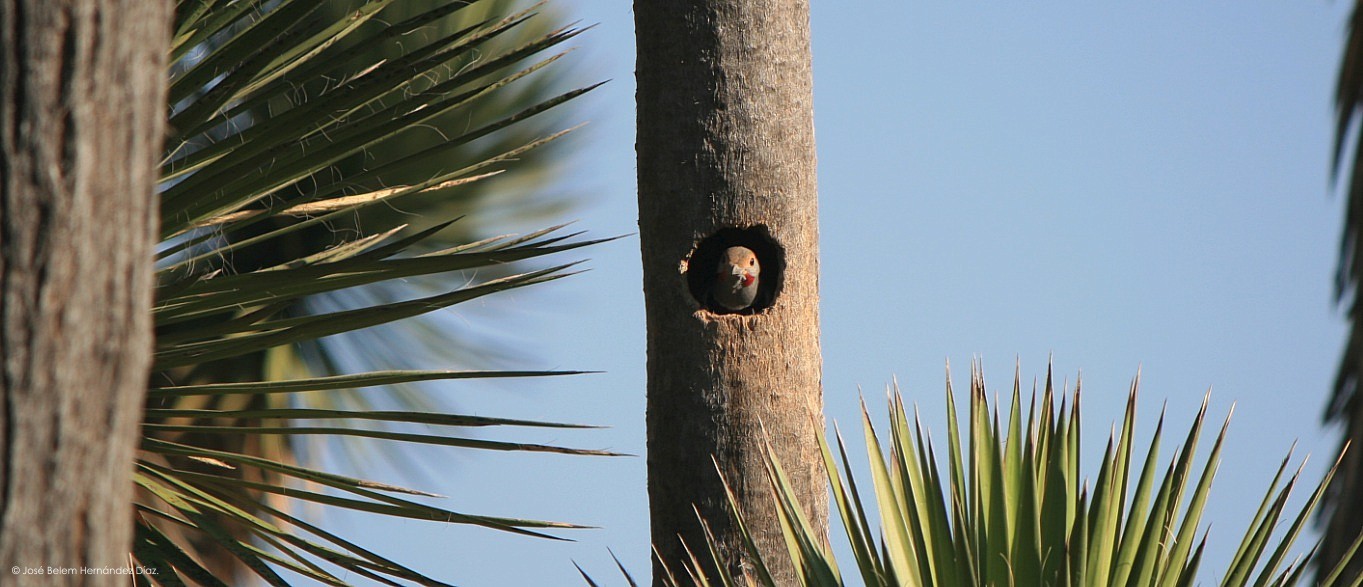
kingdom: Animalia
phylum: Chordata
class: Aves
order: Piciformes
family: Picidae
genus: Colaptes
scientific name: Colaptes auratus
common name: Northern flicker
